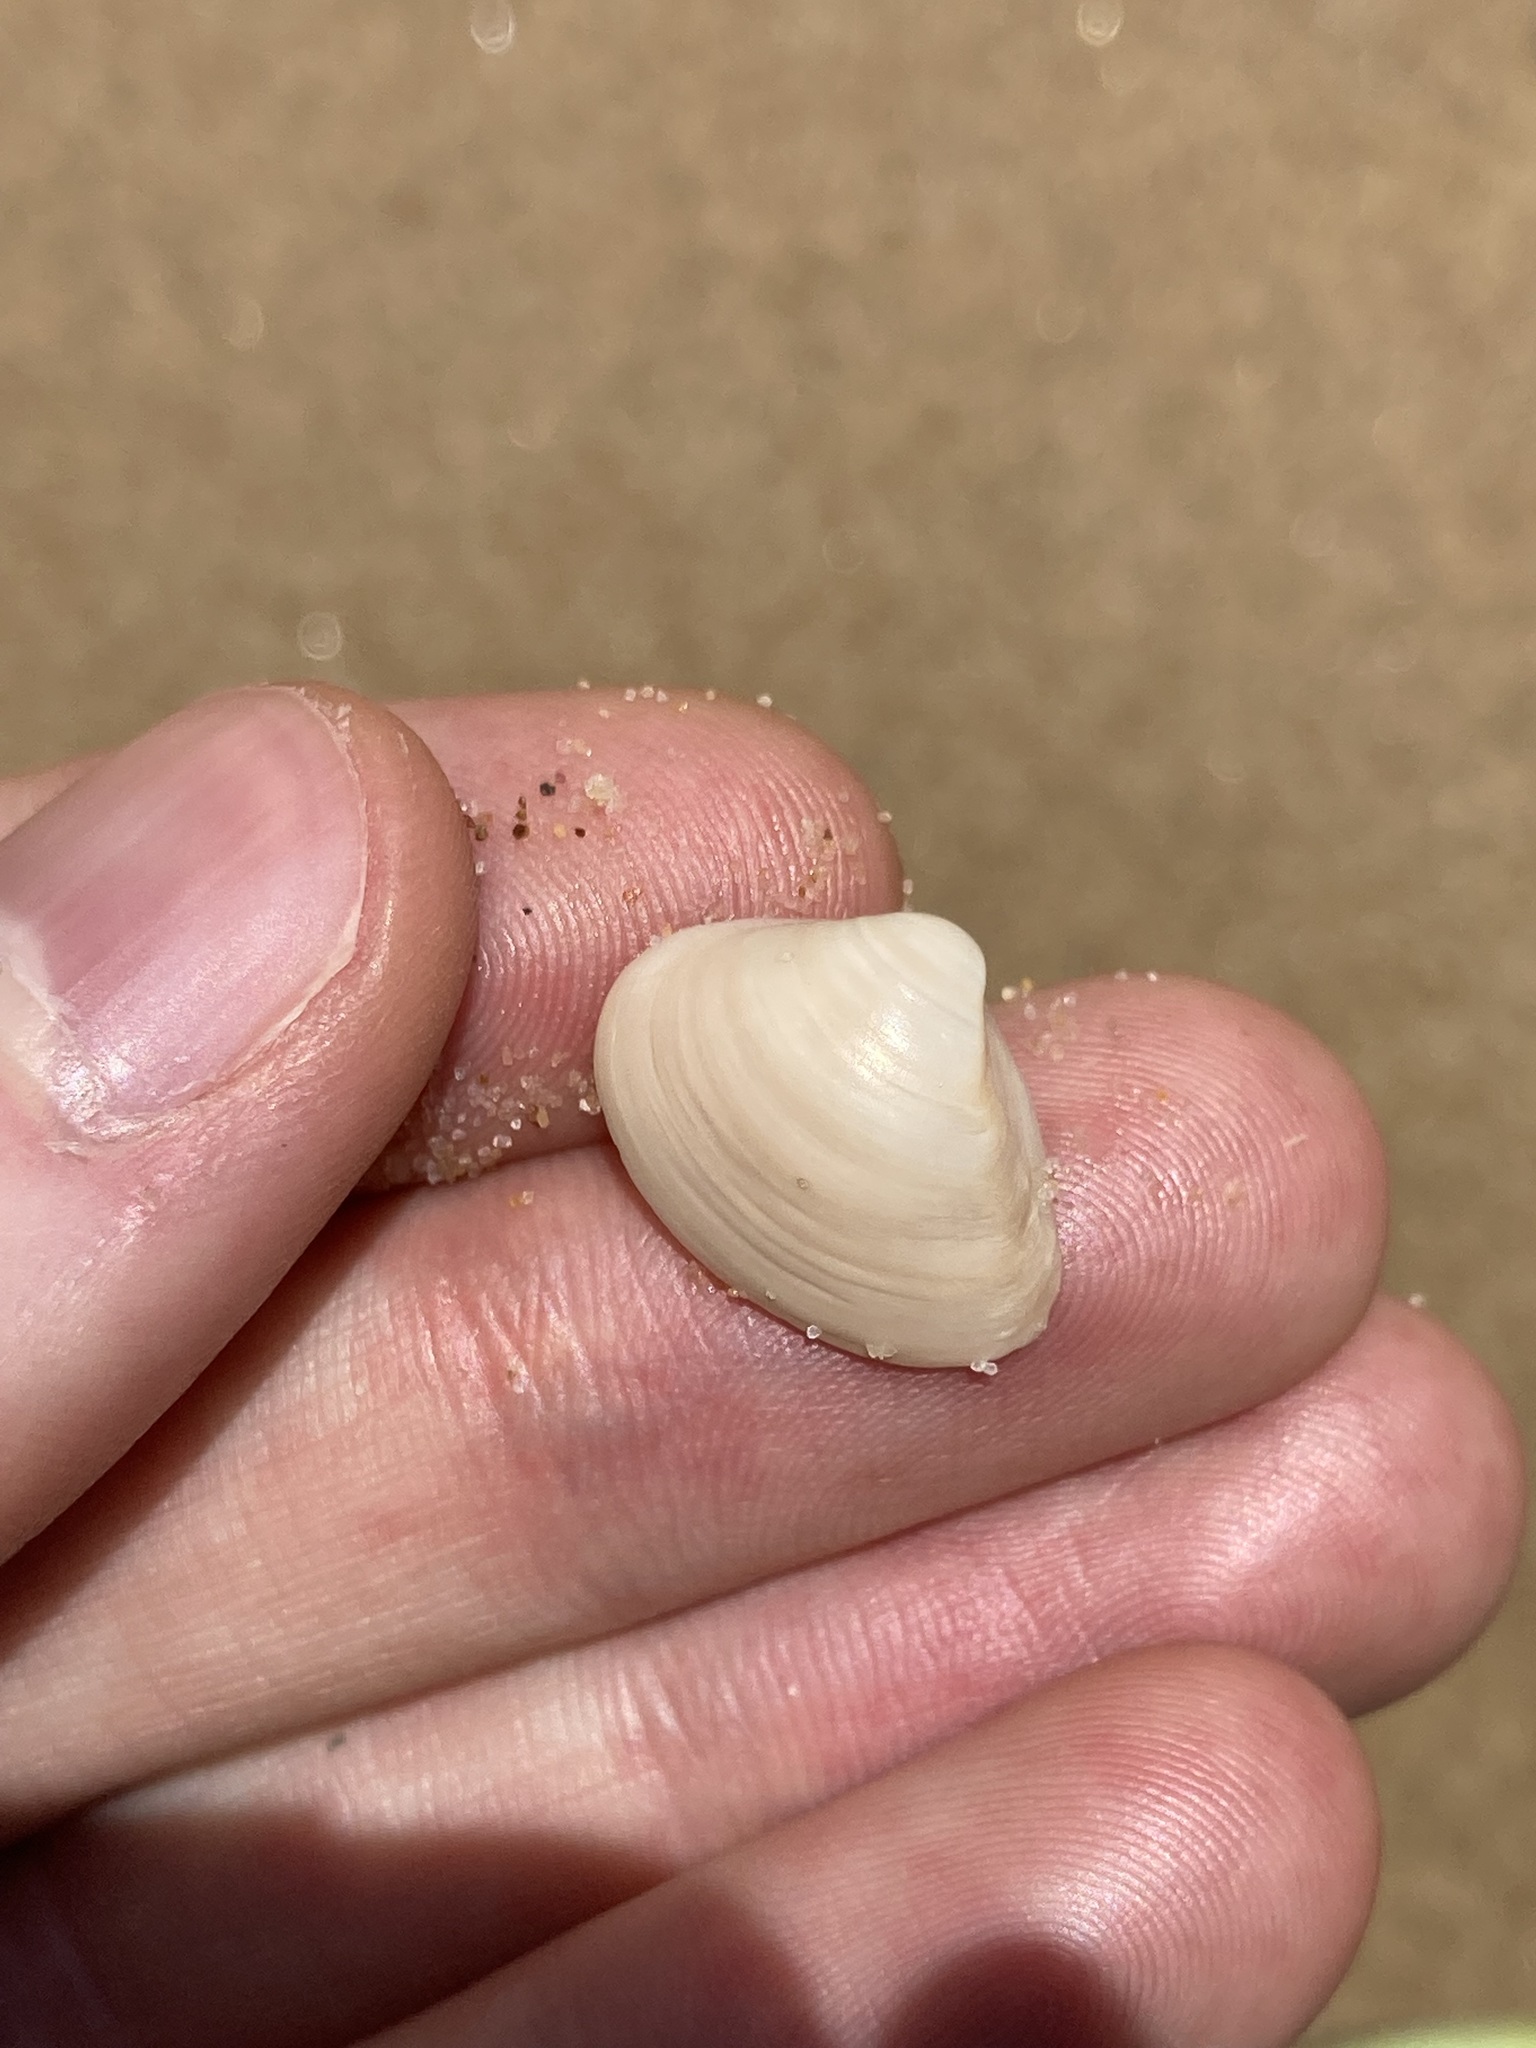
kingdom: Animalia
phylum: Mollusca
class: Bivalvia
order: Venerida
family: Mactridae
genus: Spisula
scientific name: Spisula trigonella
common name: Trigonal mactra
